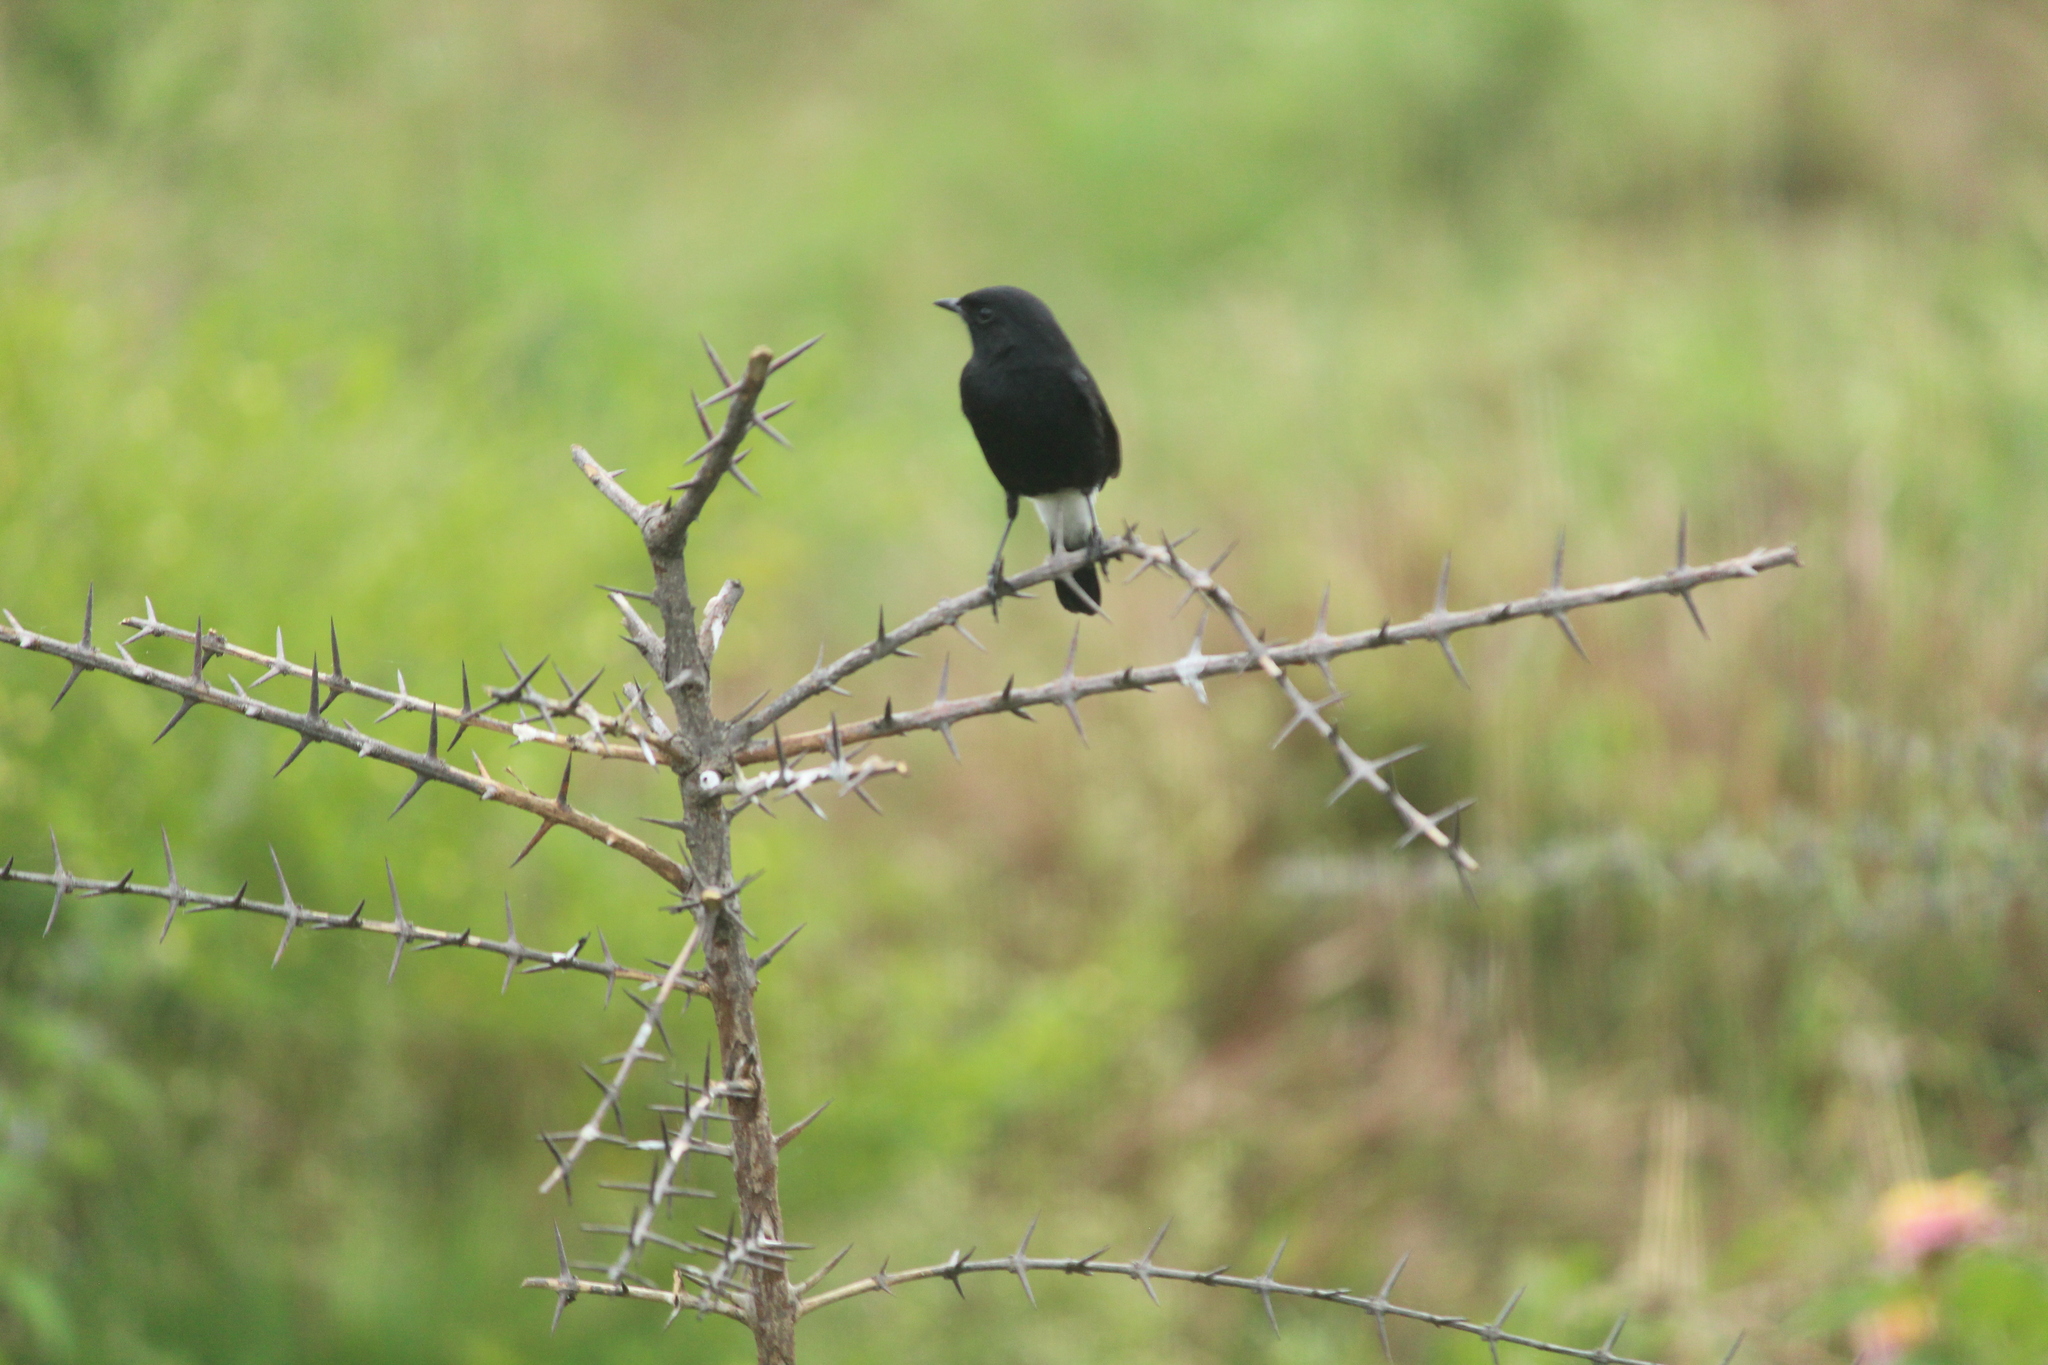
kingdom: Animalia
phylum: Chordata
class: Aves
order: Passeriformes
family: Muscicapidae
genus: Saxicola
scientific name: Saxicola caprata
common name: Pied bush chat
